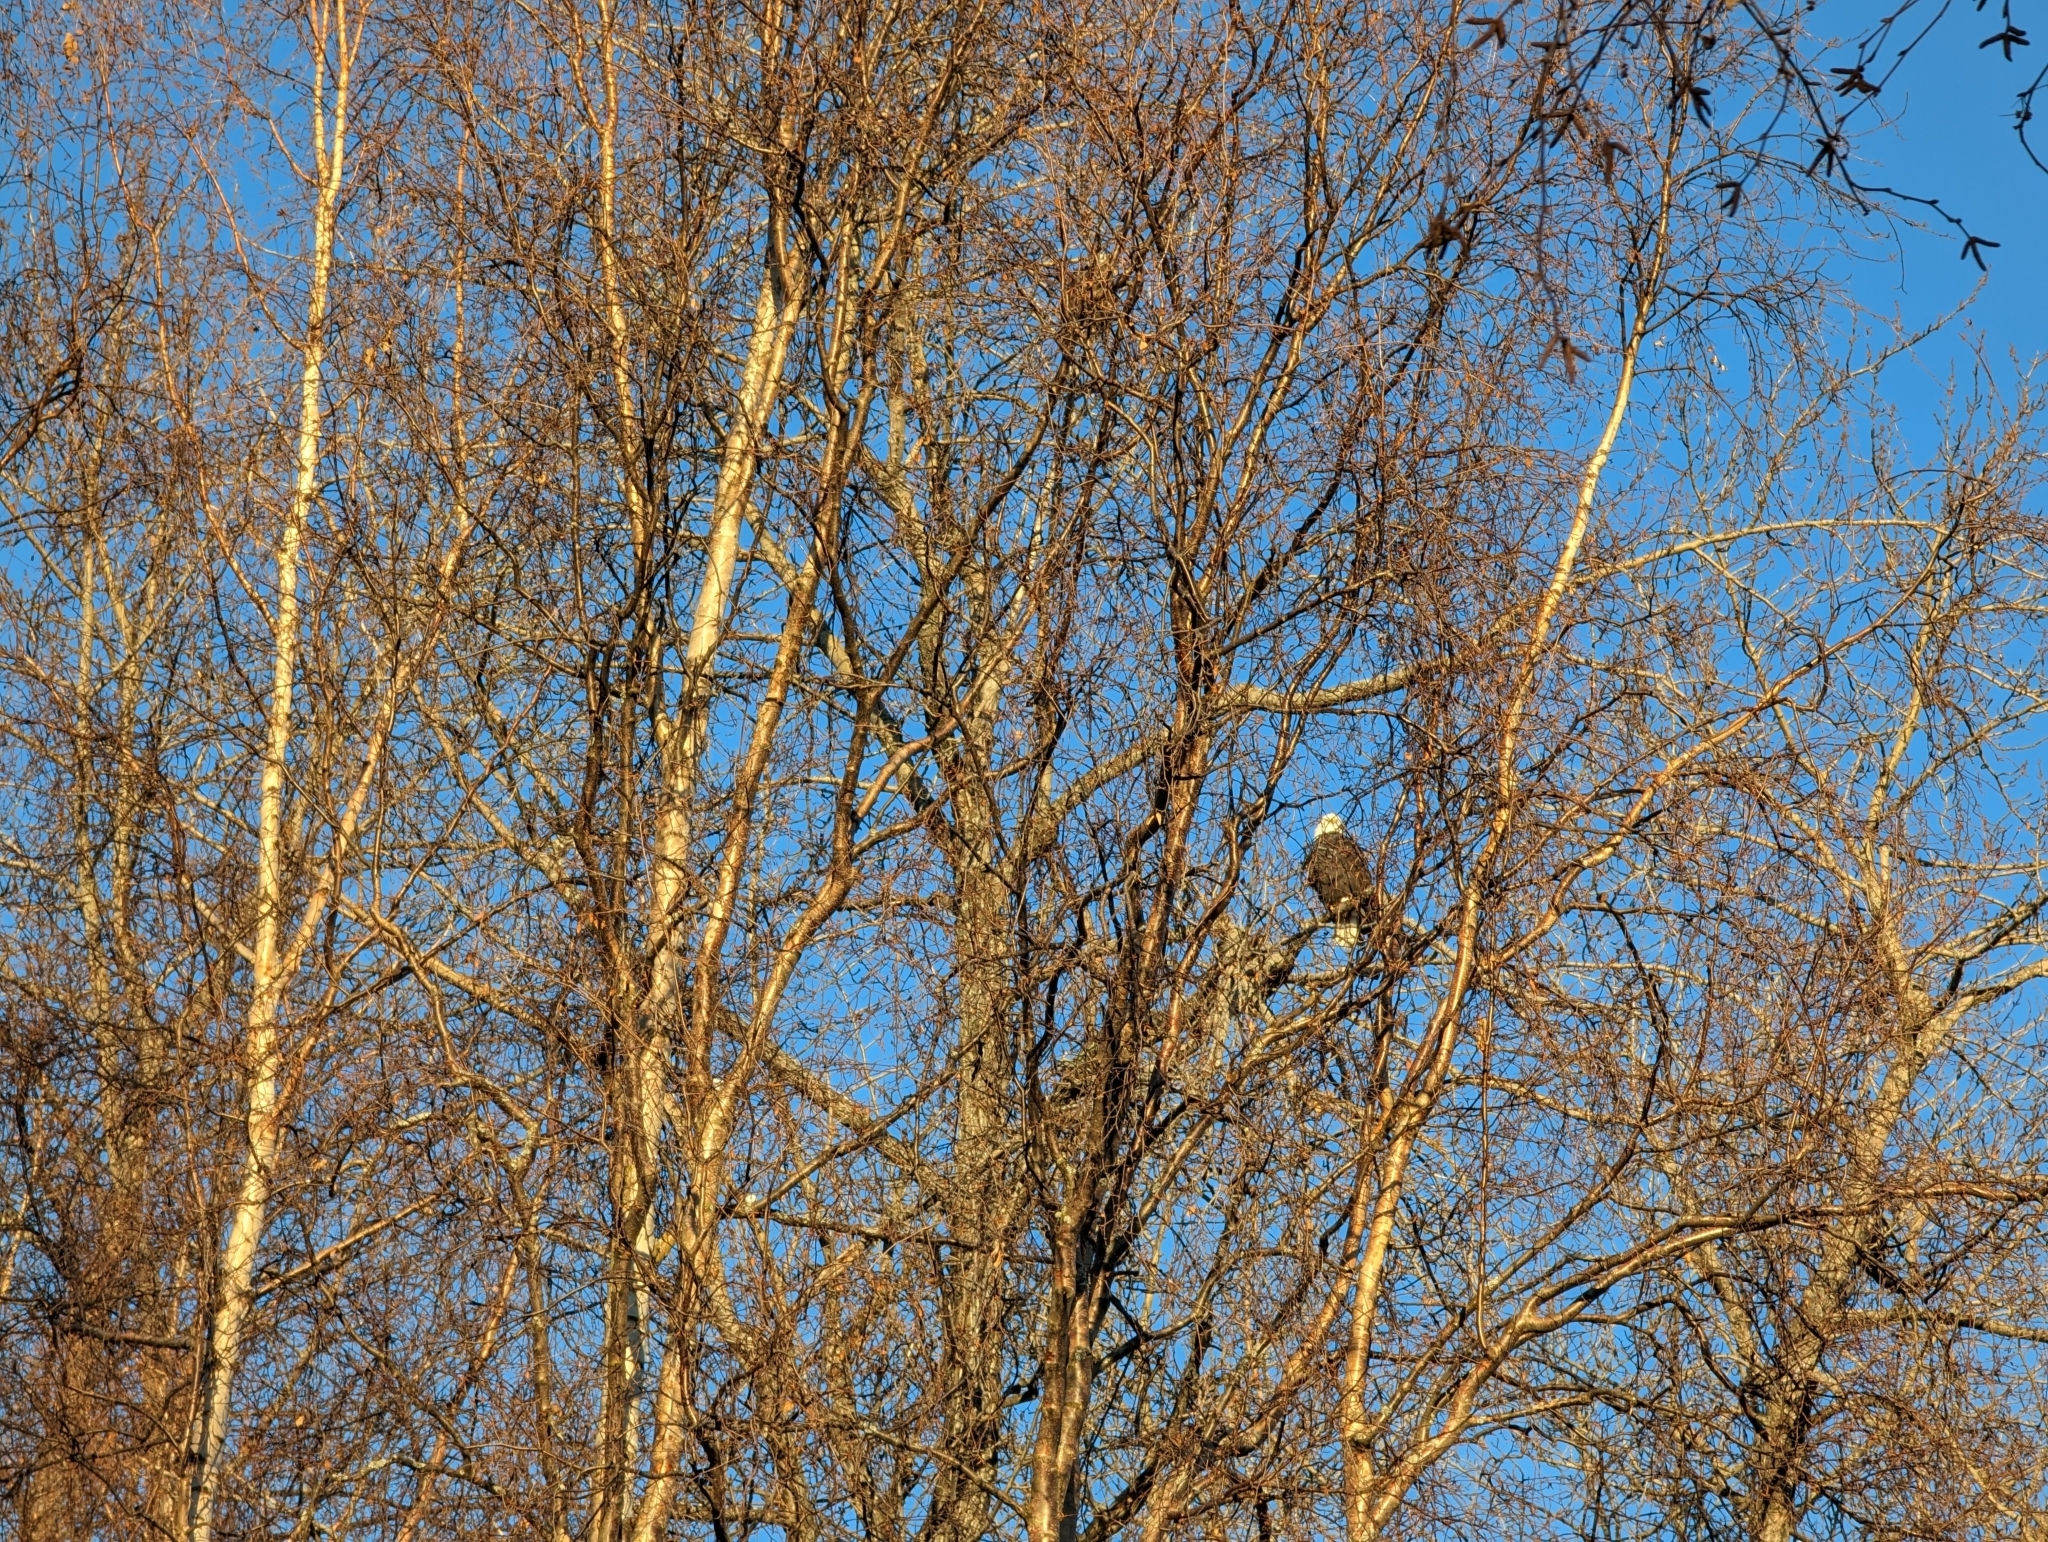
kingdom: Animalia
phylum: Chordata
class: Aves
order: Accipitriformes
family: Accipitridae
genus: Haliaeetus
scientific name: Haliaeetus leucocephalus
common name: Bald eagle
